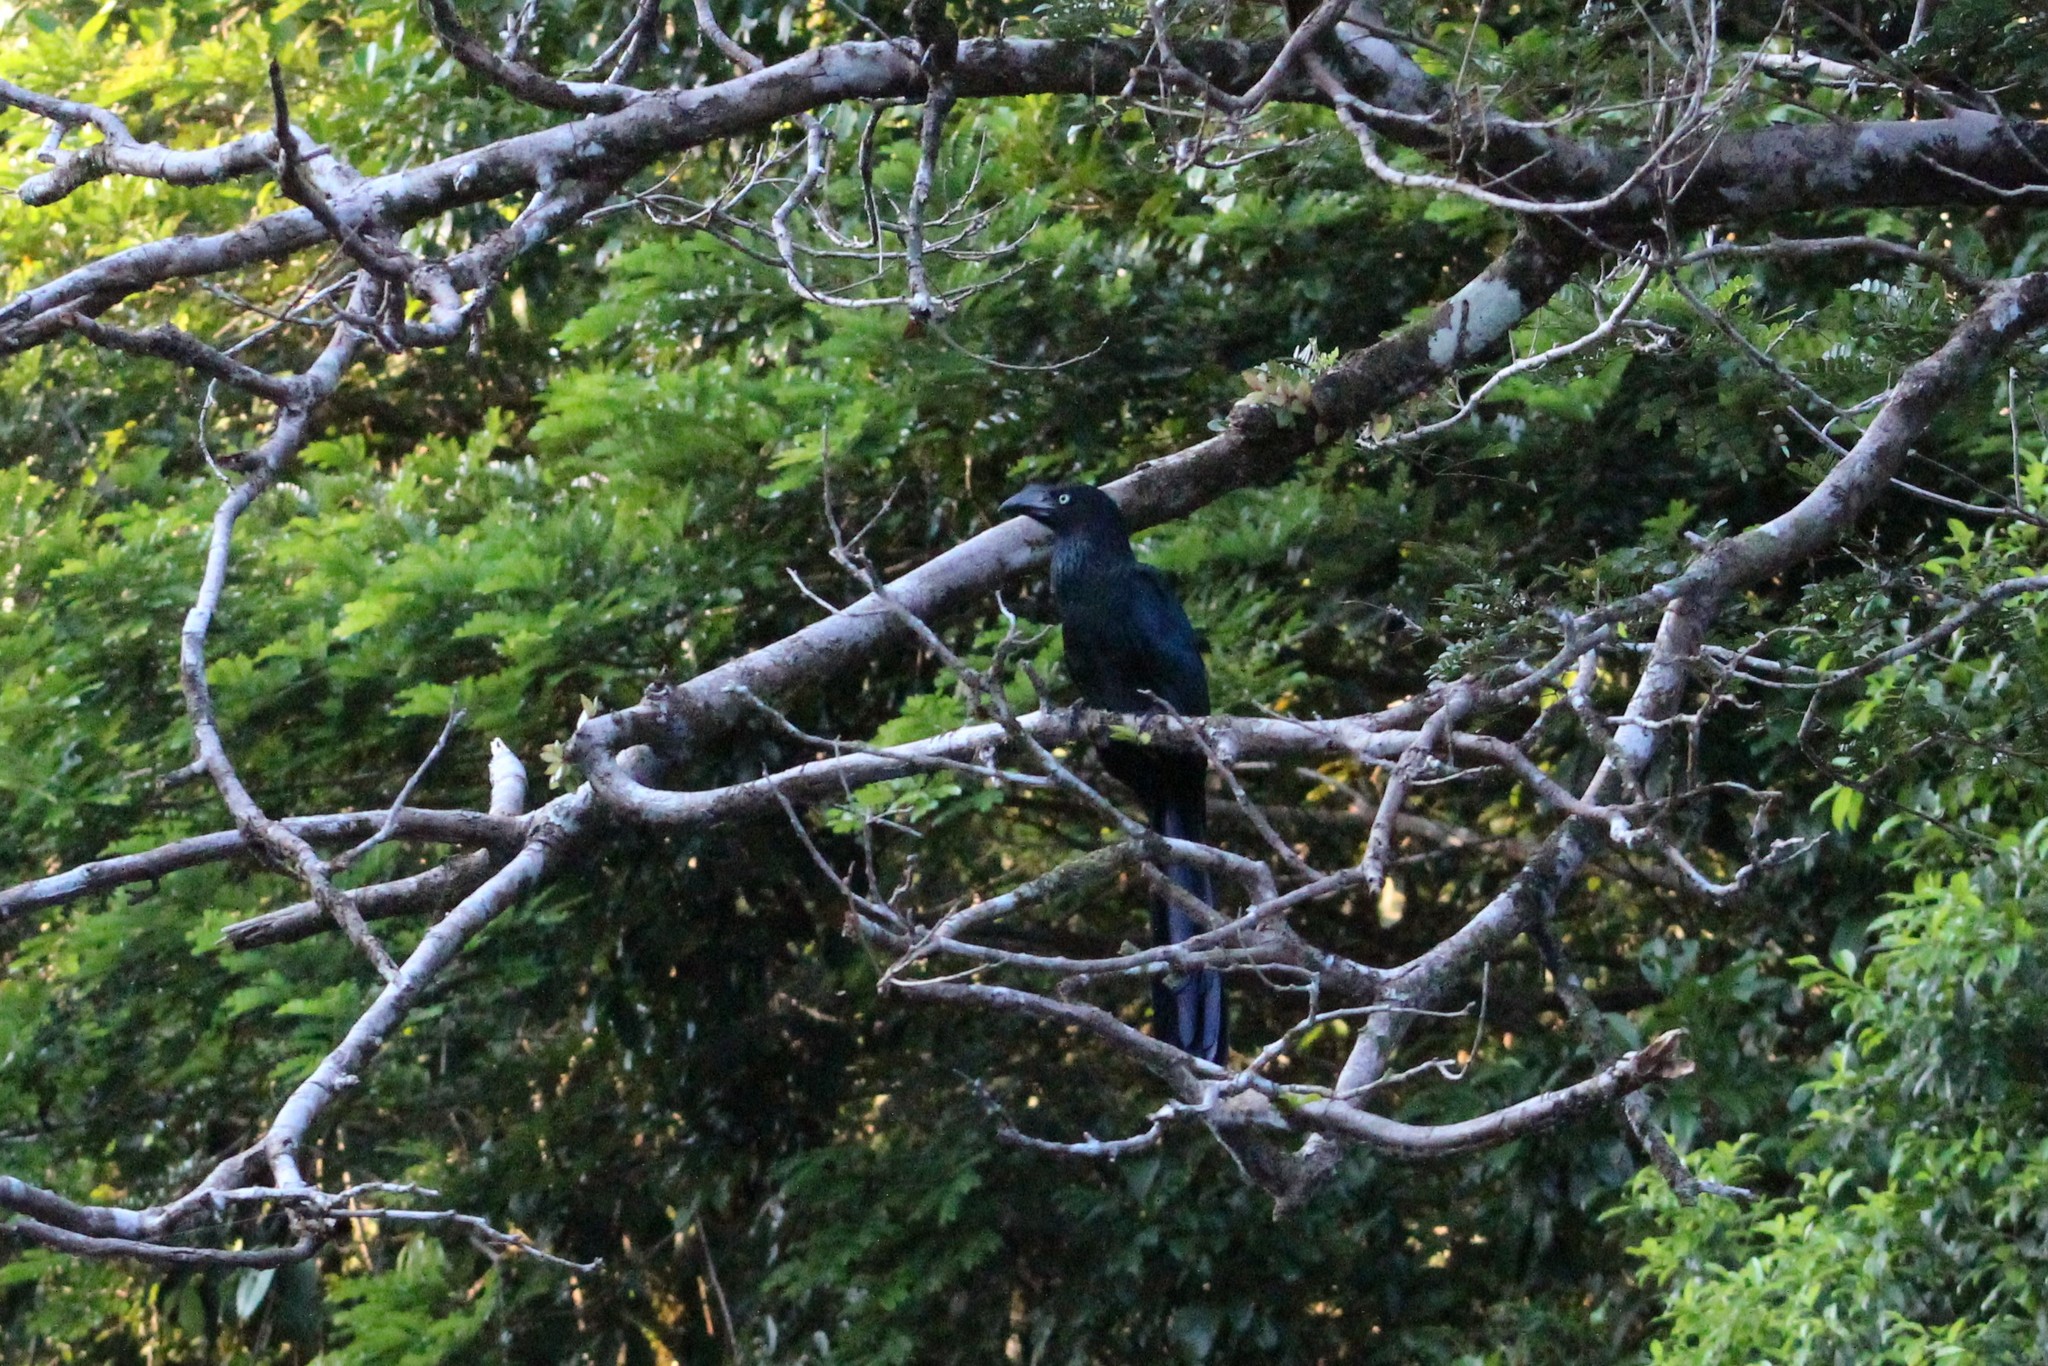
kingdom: Animalia
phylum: Chordata
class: Aves
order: Cuculiformes
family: Cuculidae
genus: Crotophaga
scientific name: Crotophaga major
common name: Greater ani
